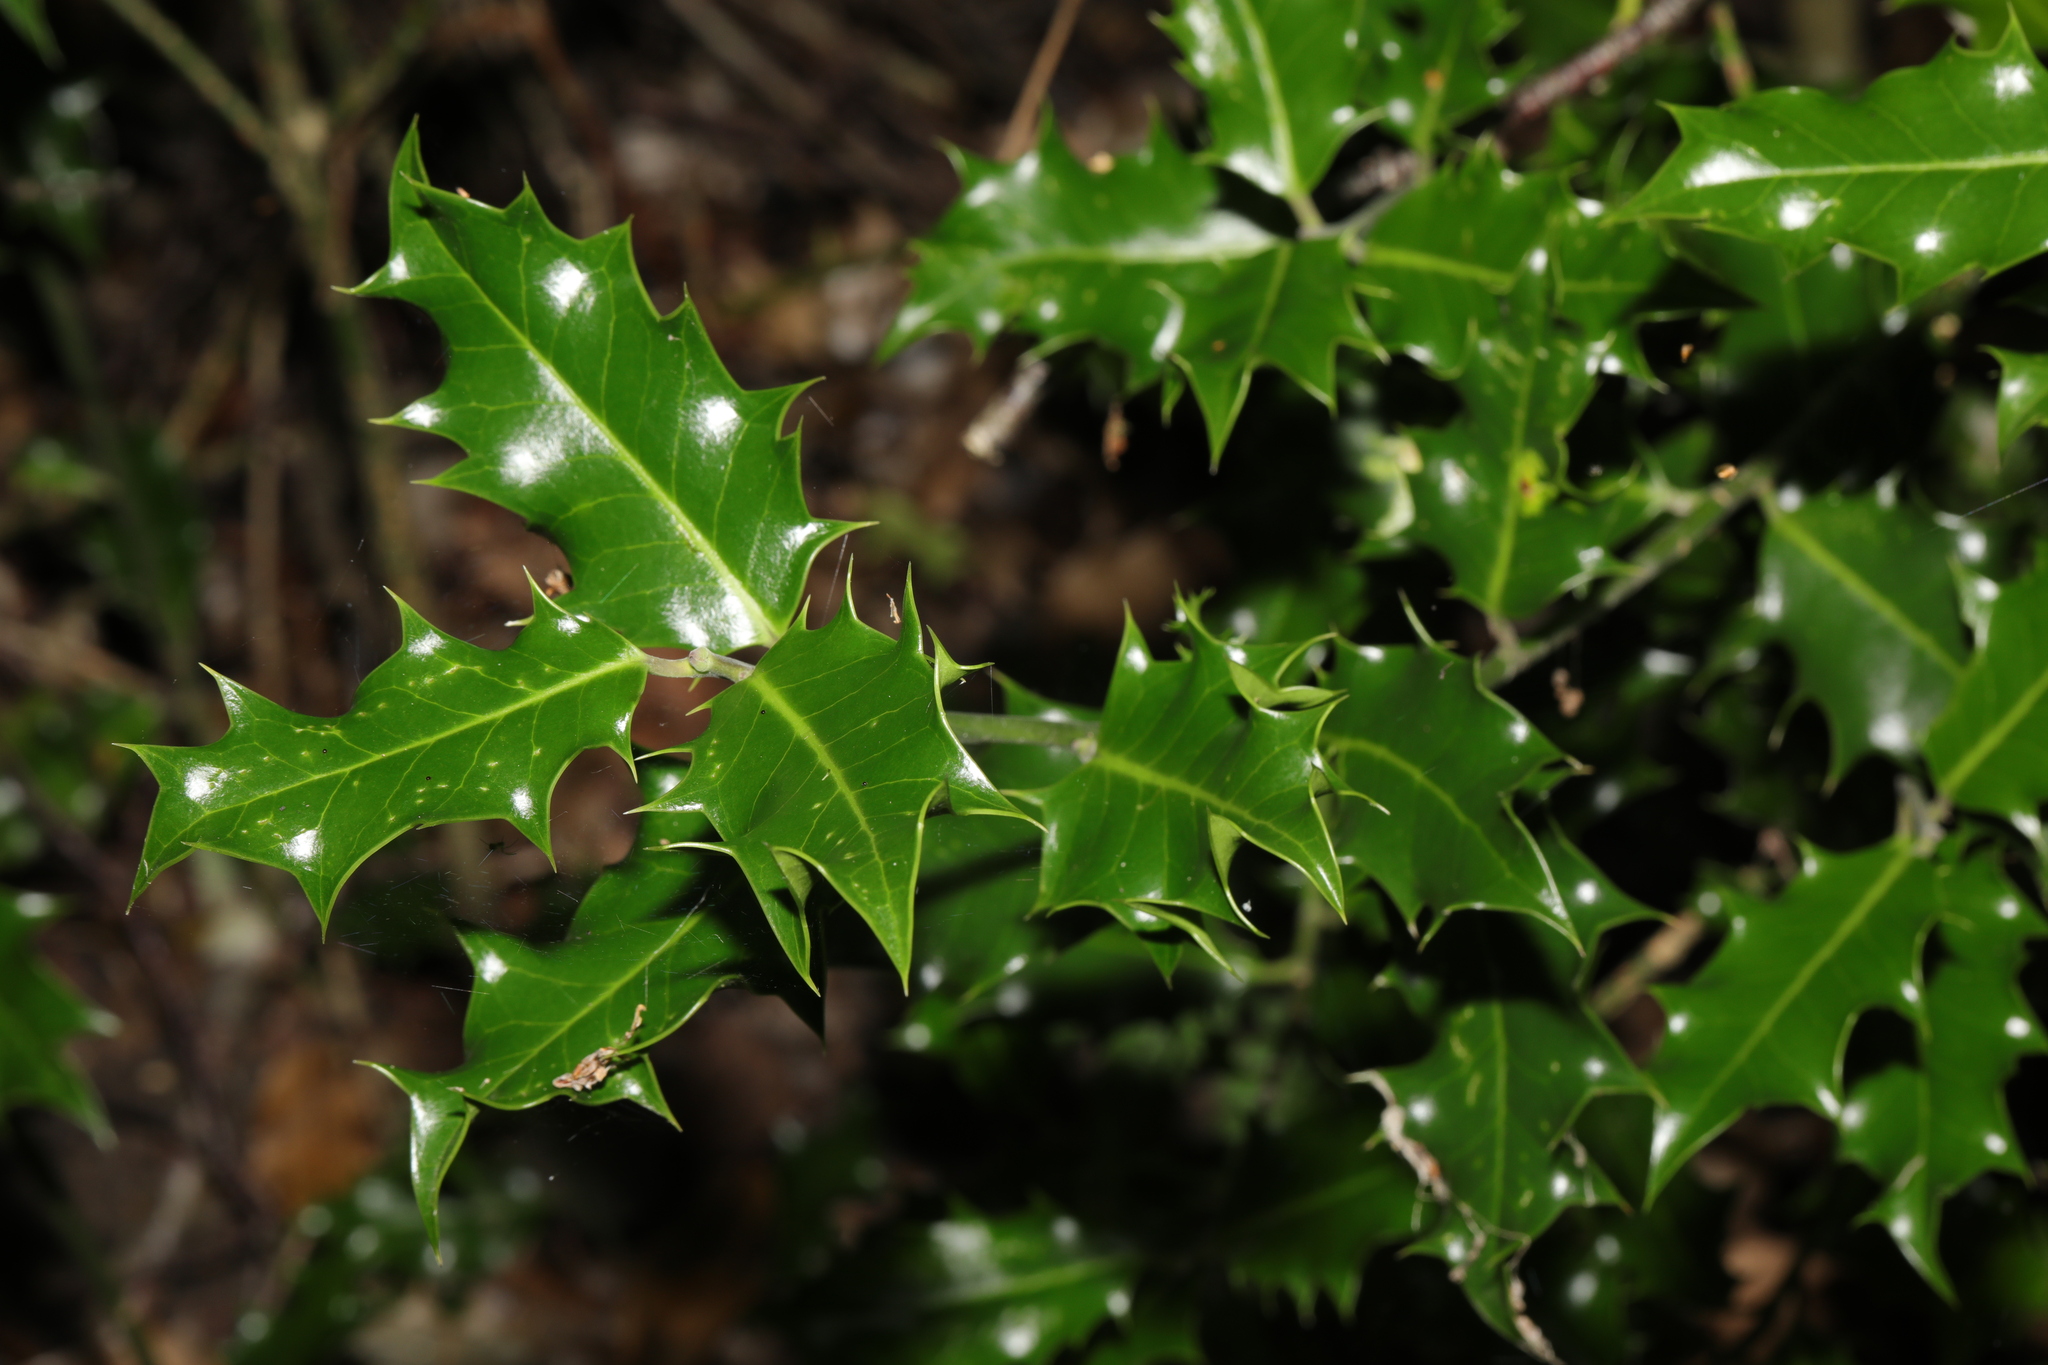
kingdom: Plantae
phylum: Tracheophyta
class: Magnoliopsida
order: Aquifoliales
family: Aquifoliaceae
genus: Ilex
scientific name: Ilex aquifolium
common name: English holly
